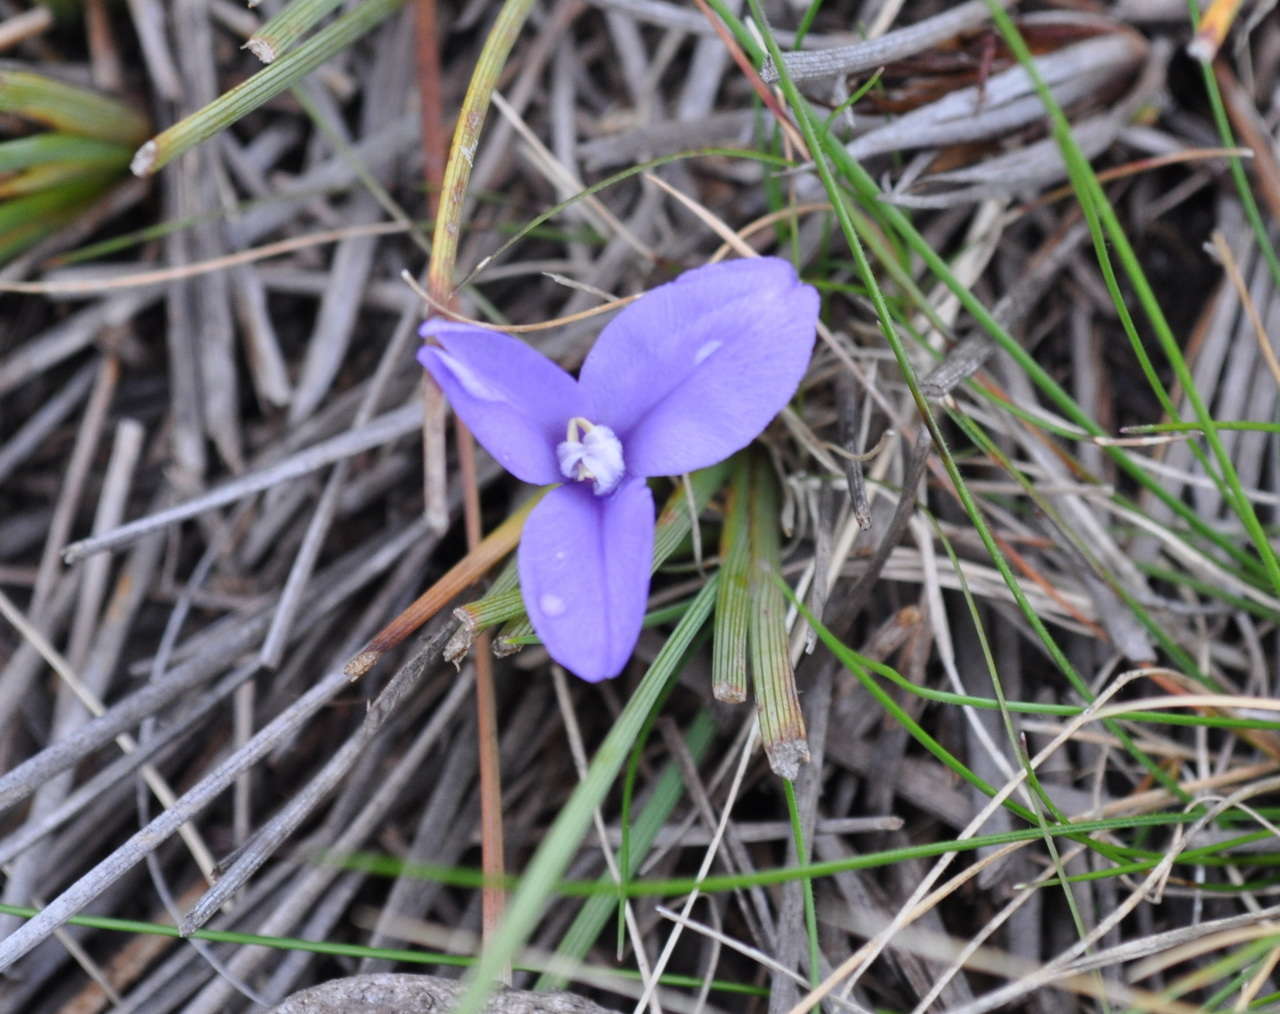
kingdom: Plantae
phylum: Tracheophyta
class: Liliopsida
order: Asparagales
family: Iridaceae
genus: Patersonia
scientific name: Patersonia fragilis
